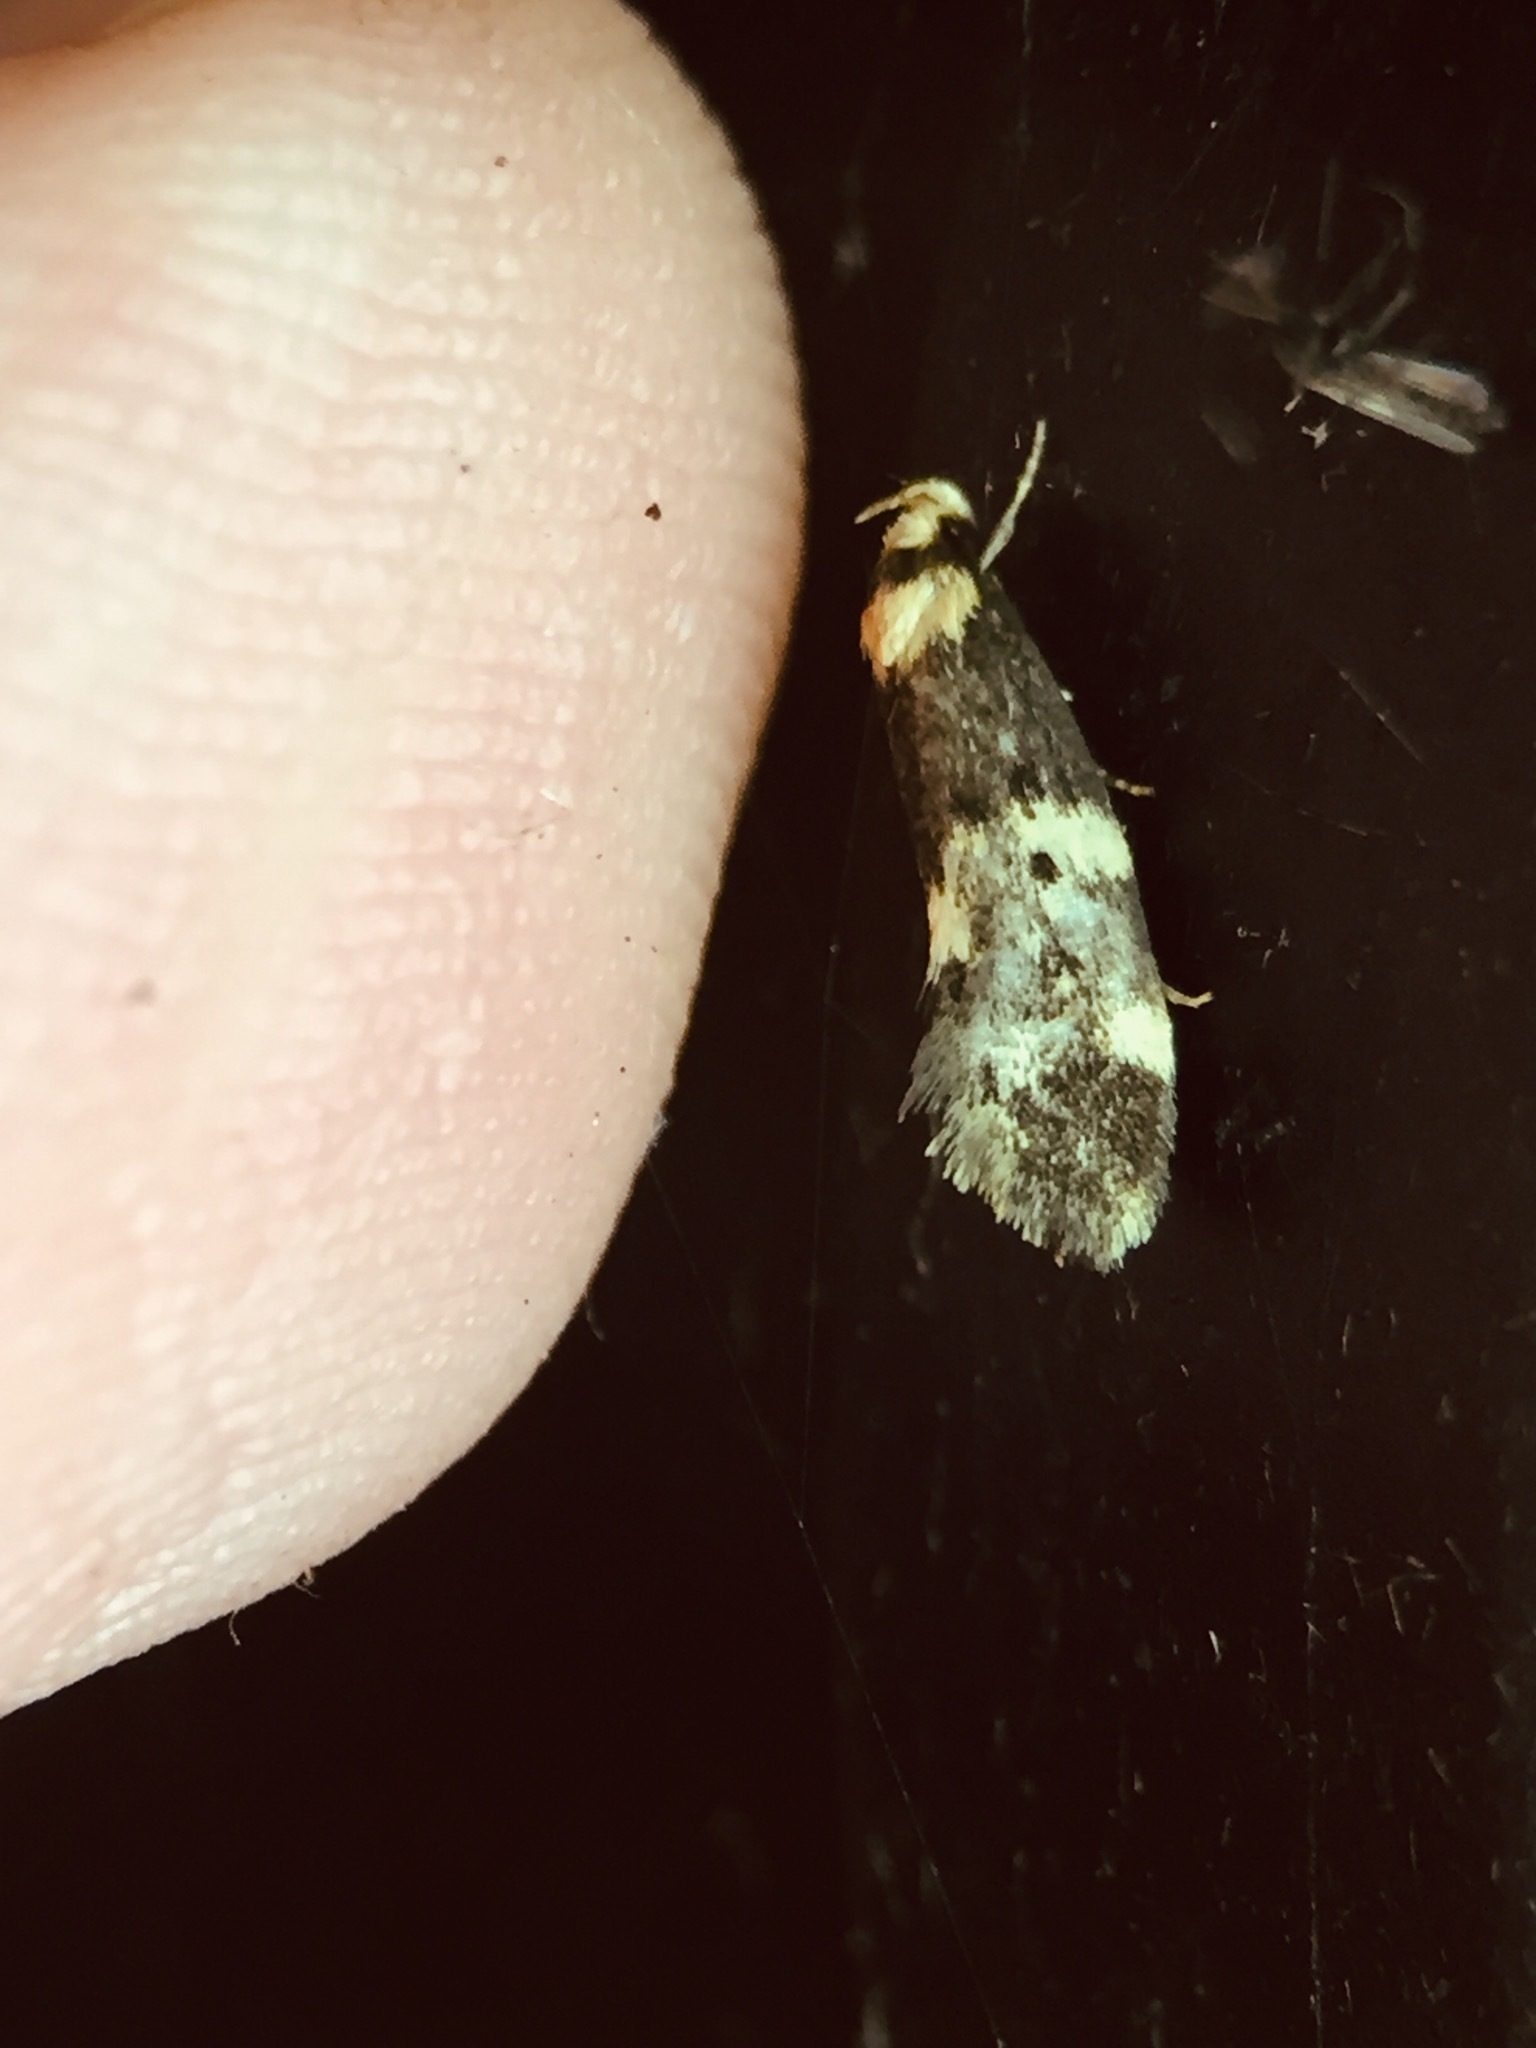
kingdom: Animalia
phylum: Arthropoda
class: Insecta
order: Lepidoptera
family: Oecophoridae
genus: Sphyrelata
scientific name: Sphyrelata amotella
